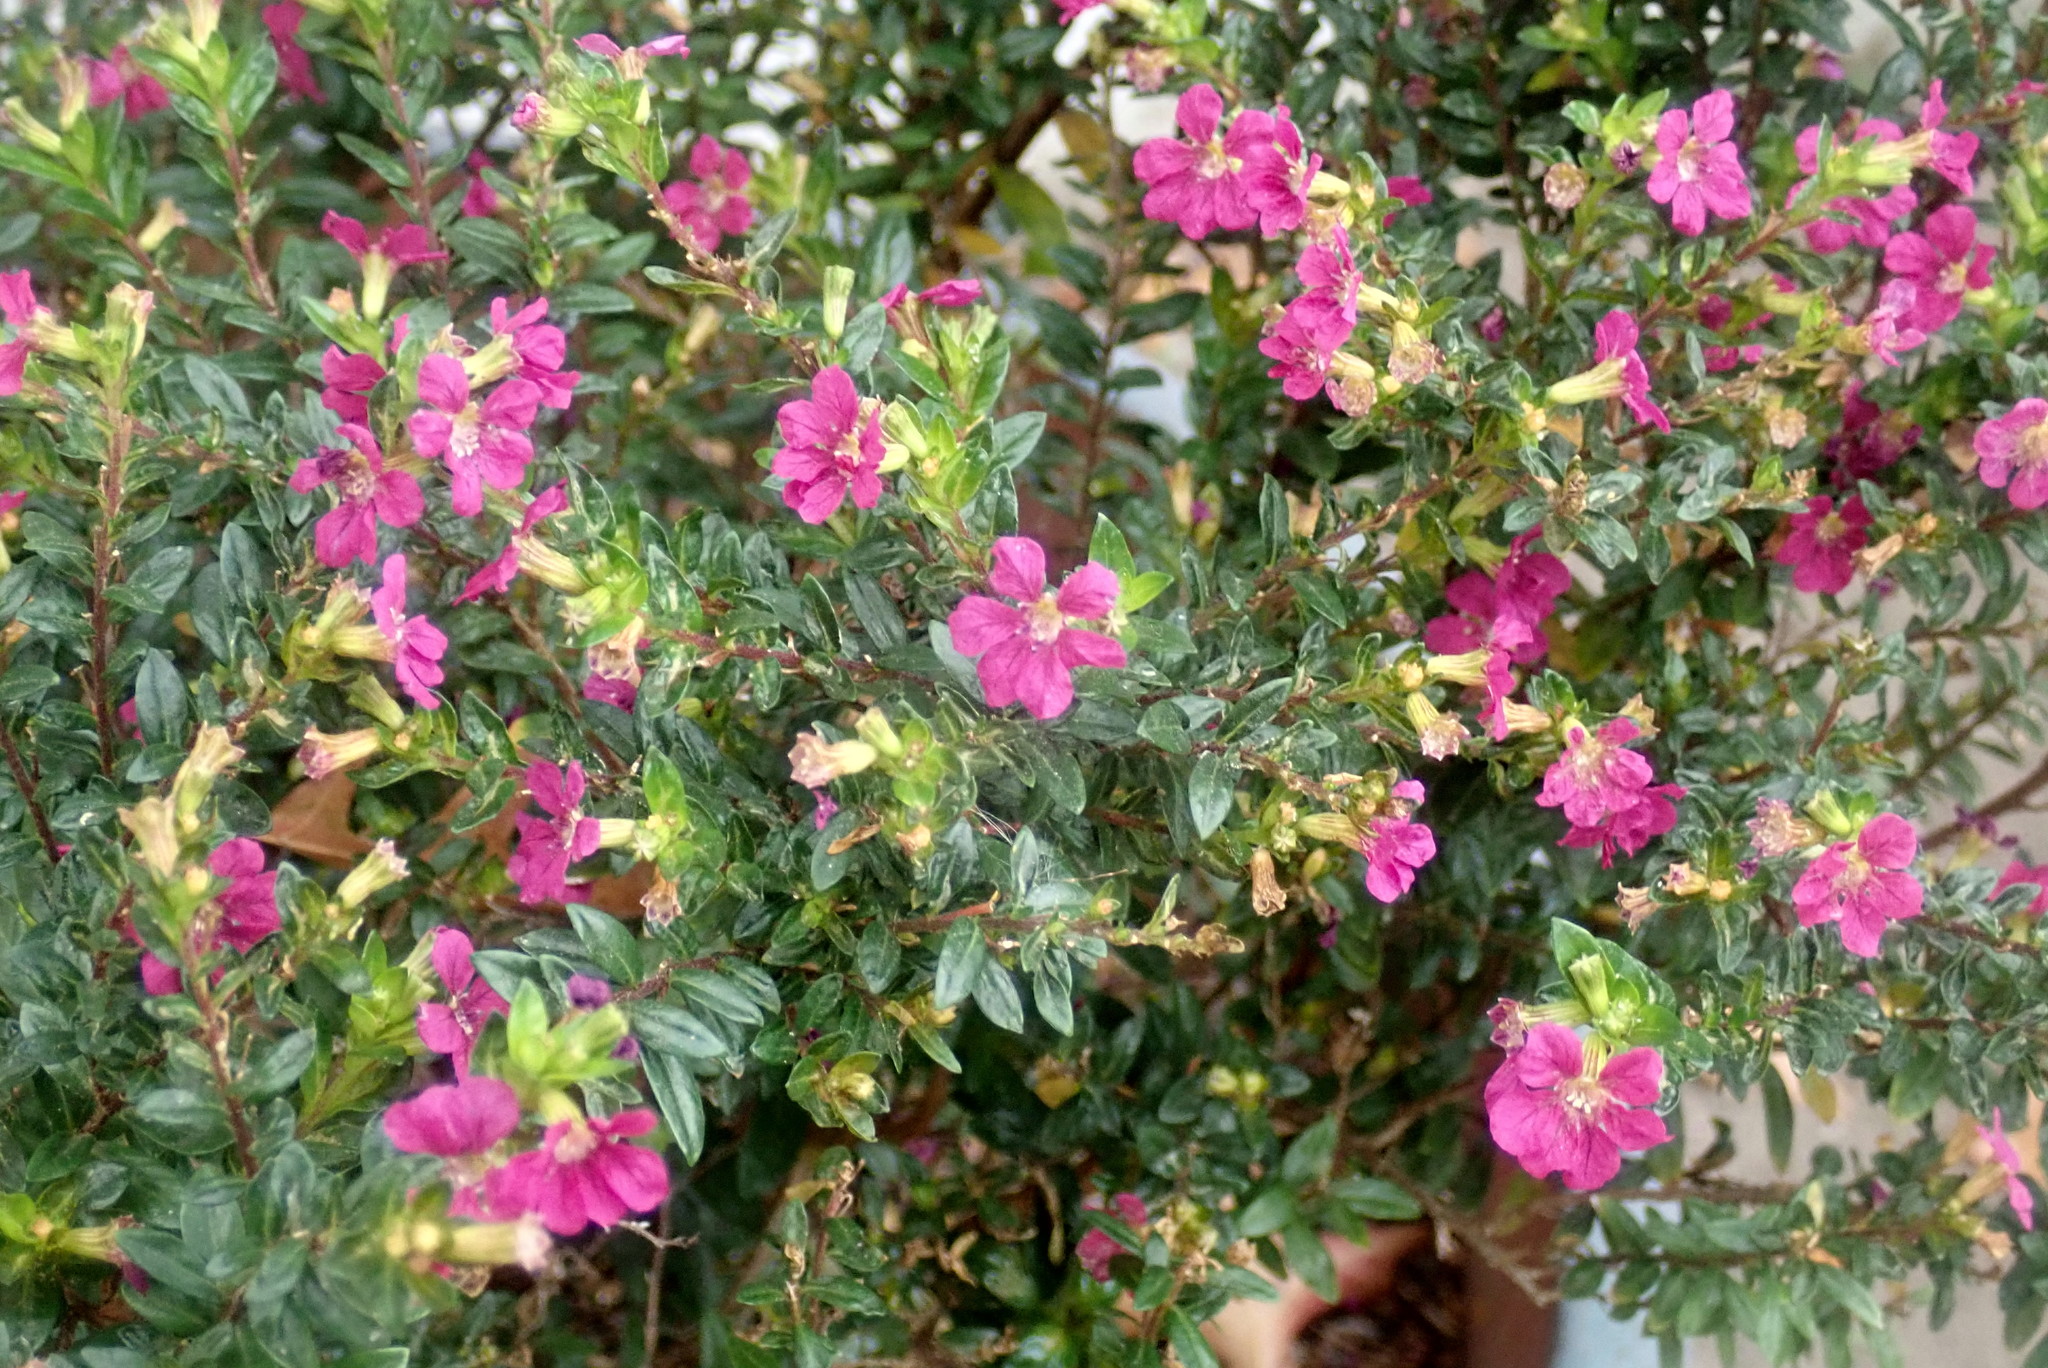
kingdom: Plantae
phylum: Tracheophyta
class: Magnoliopsida
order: Myrtales
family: Lythraceae
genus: Cuphea
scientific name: Cuphea hyssopifolia
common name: False heather
